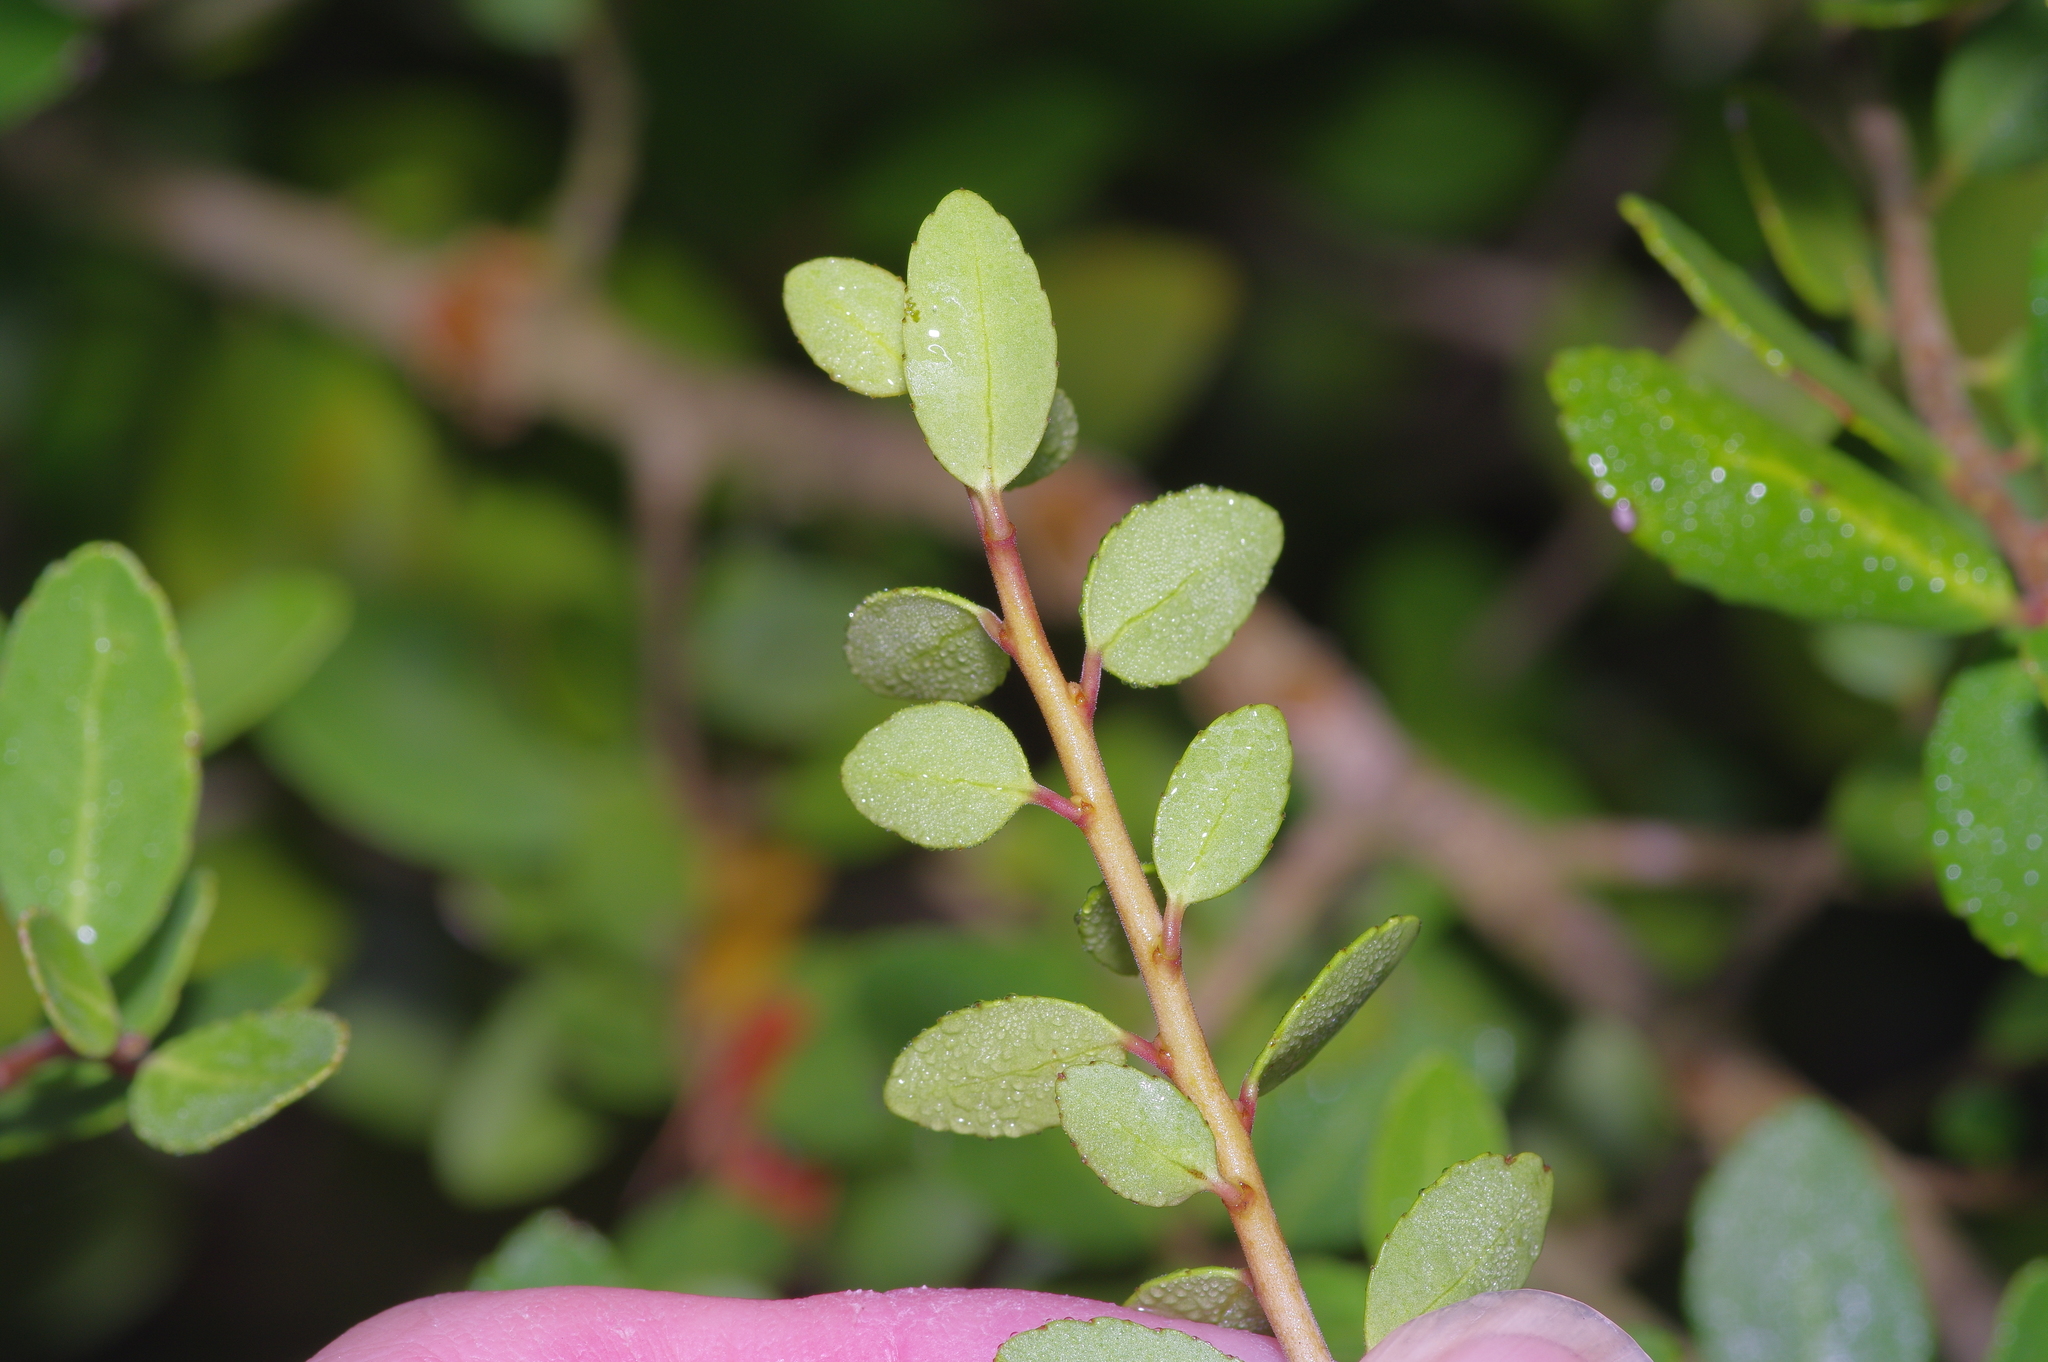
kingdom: Plantae
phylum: Tracheophyta
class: Magnoliopsida
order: Aquifoliales
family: Aquifoliaceae
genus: Ilex
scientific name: Ilex vomitoria
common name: Yaupon holly
